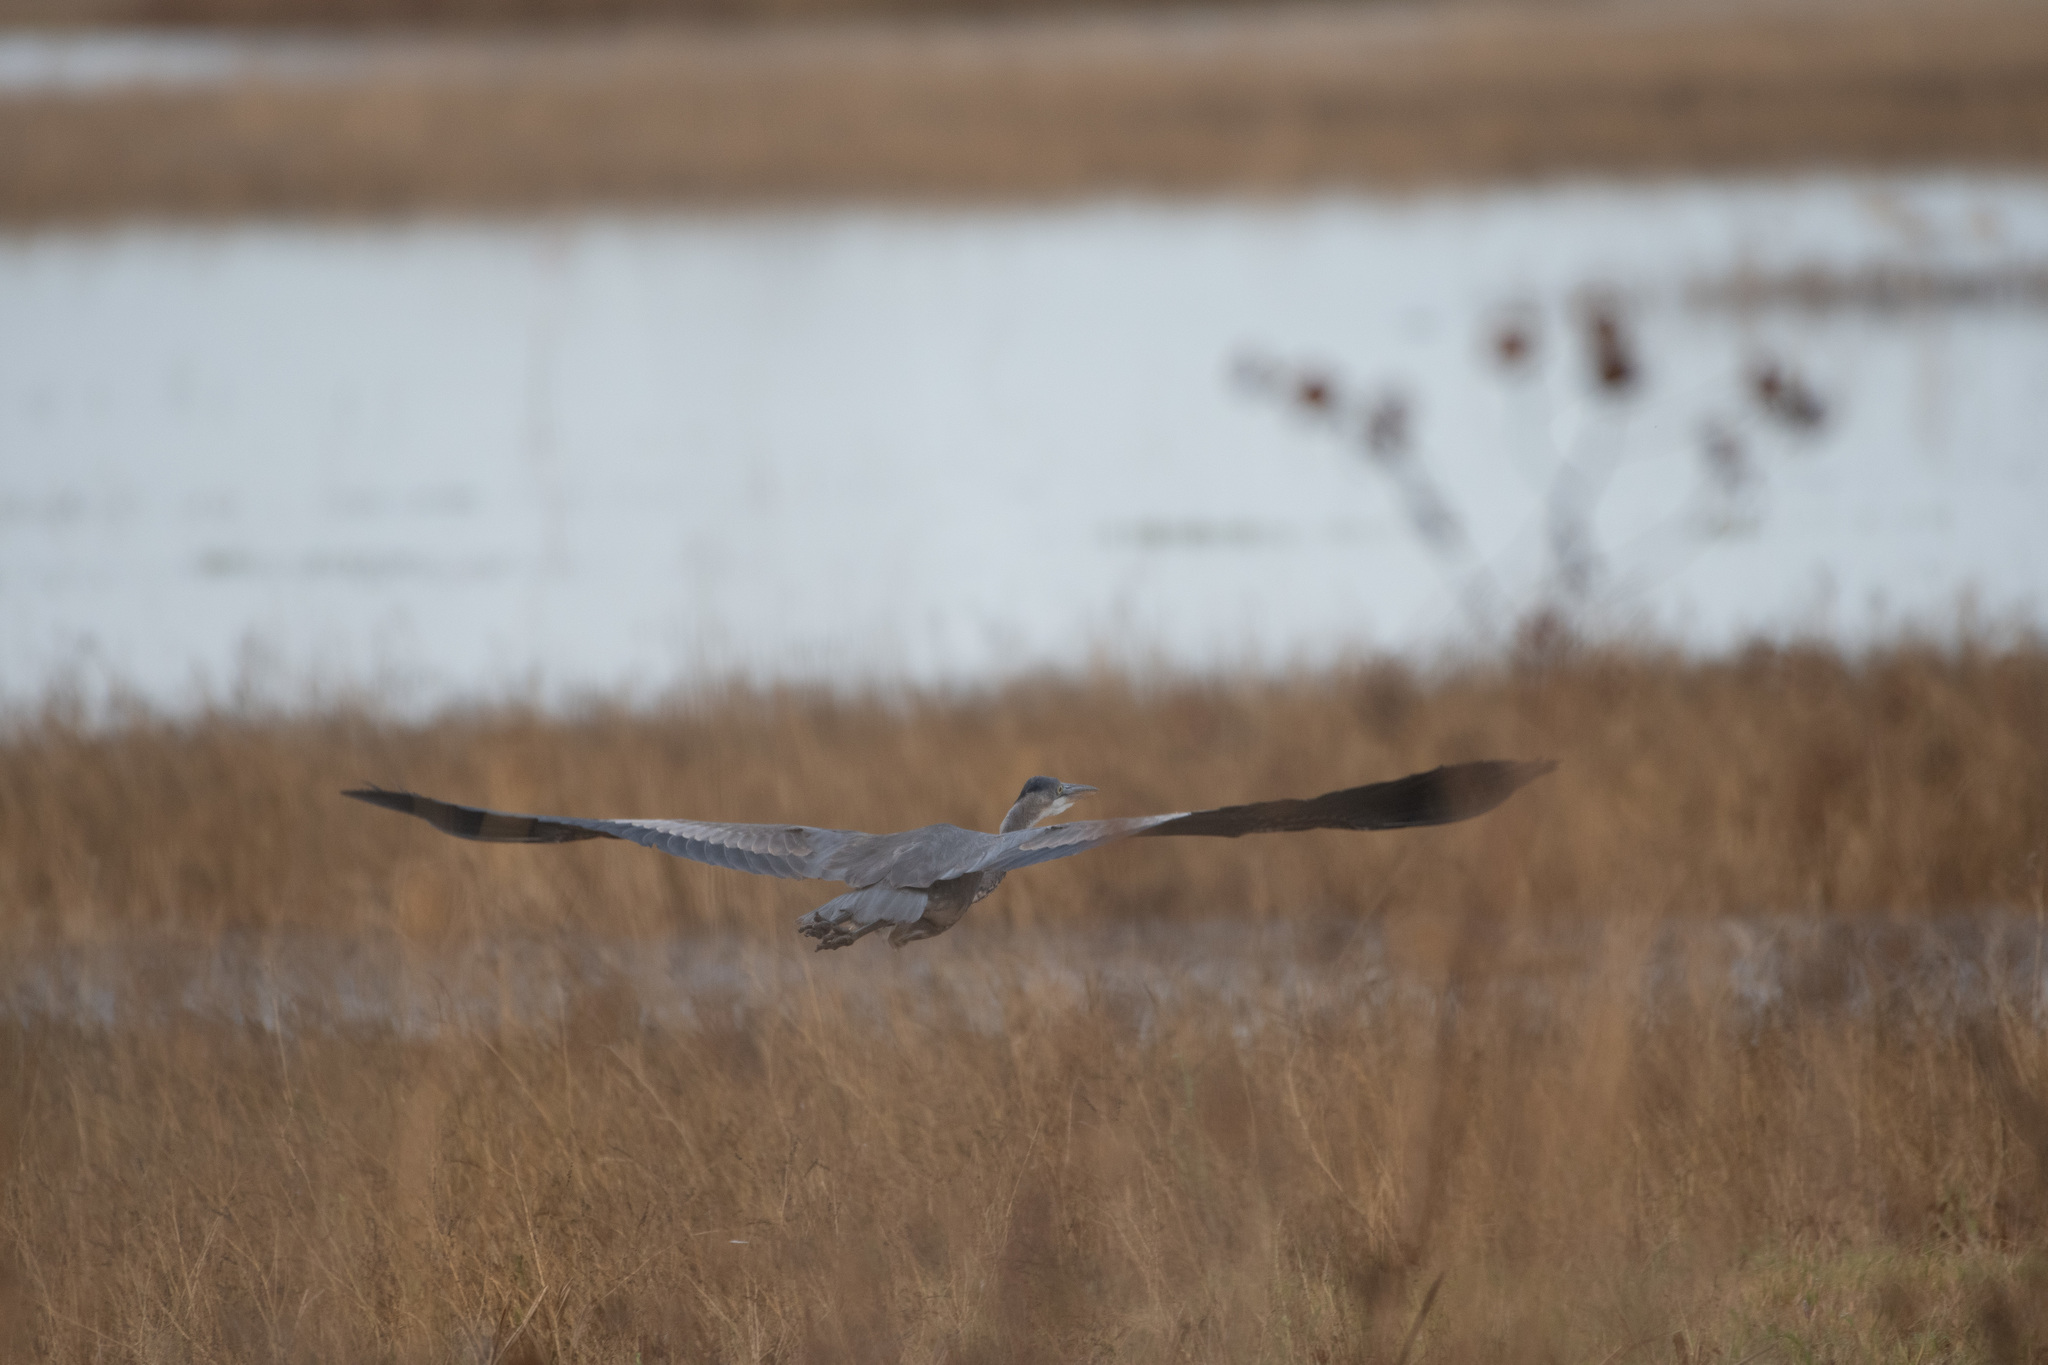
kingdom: Animalia
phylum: Chordata
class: Aves
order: Pelecaniformes
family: Ardeidae
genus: Ardea
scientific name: Ardea herodias
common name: Great blue heron
